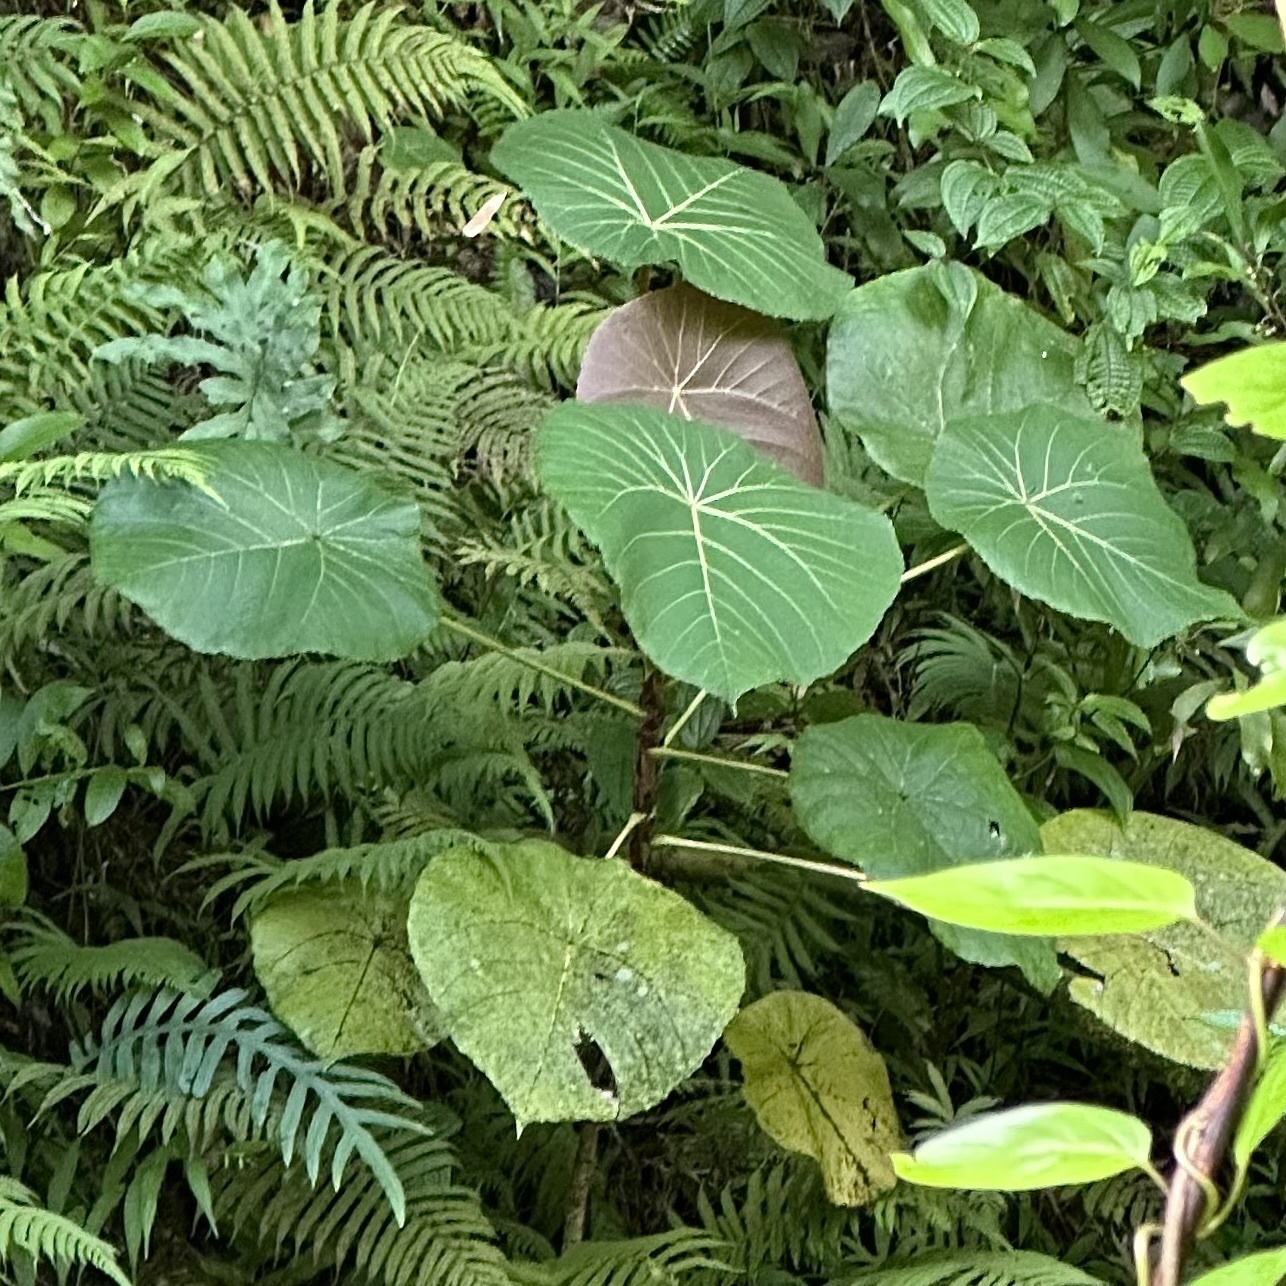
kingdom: Plantae
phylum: Tracheophyta
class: Magnoliopsida
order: Malpighiales
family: Euphorbiaceae
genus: Macaranga
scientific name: Macaranga mappa
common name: Pengua
